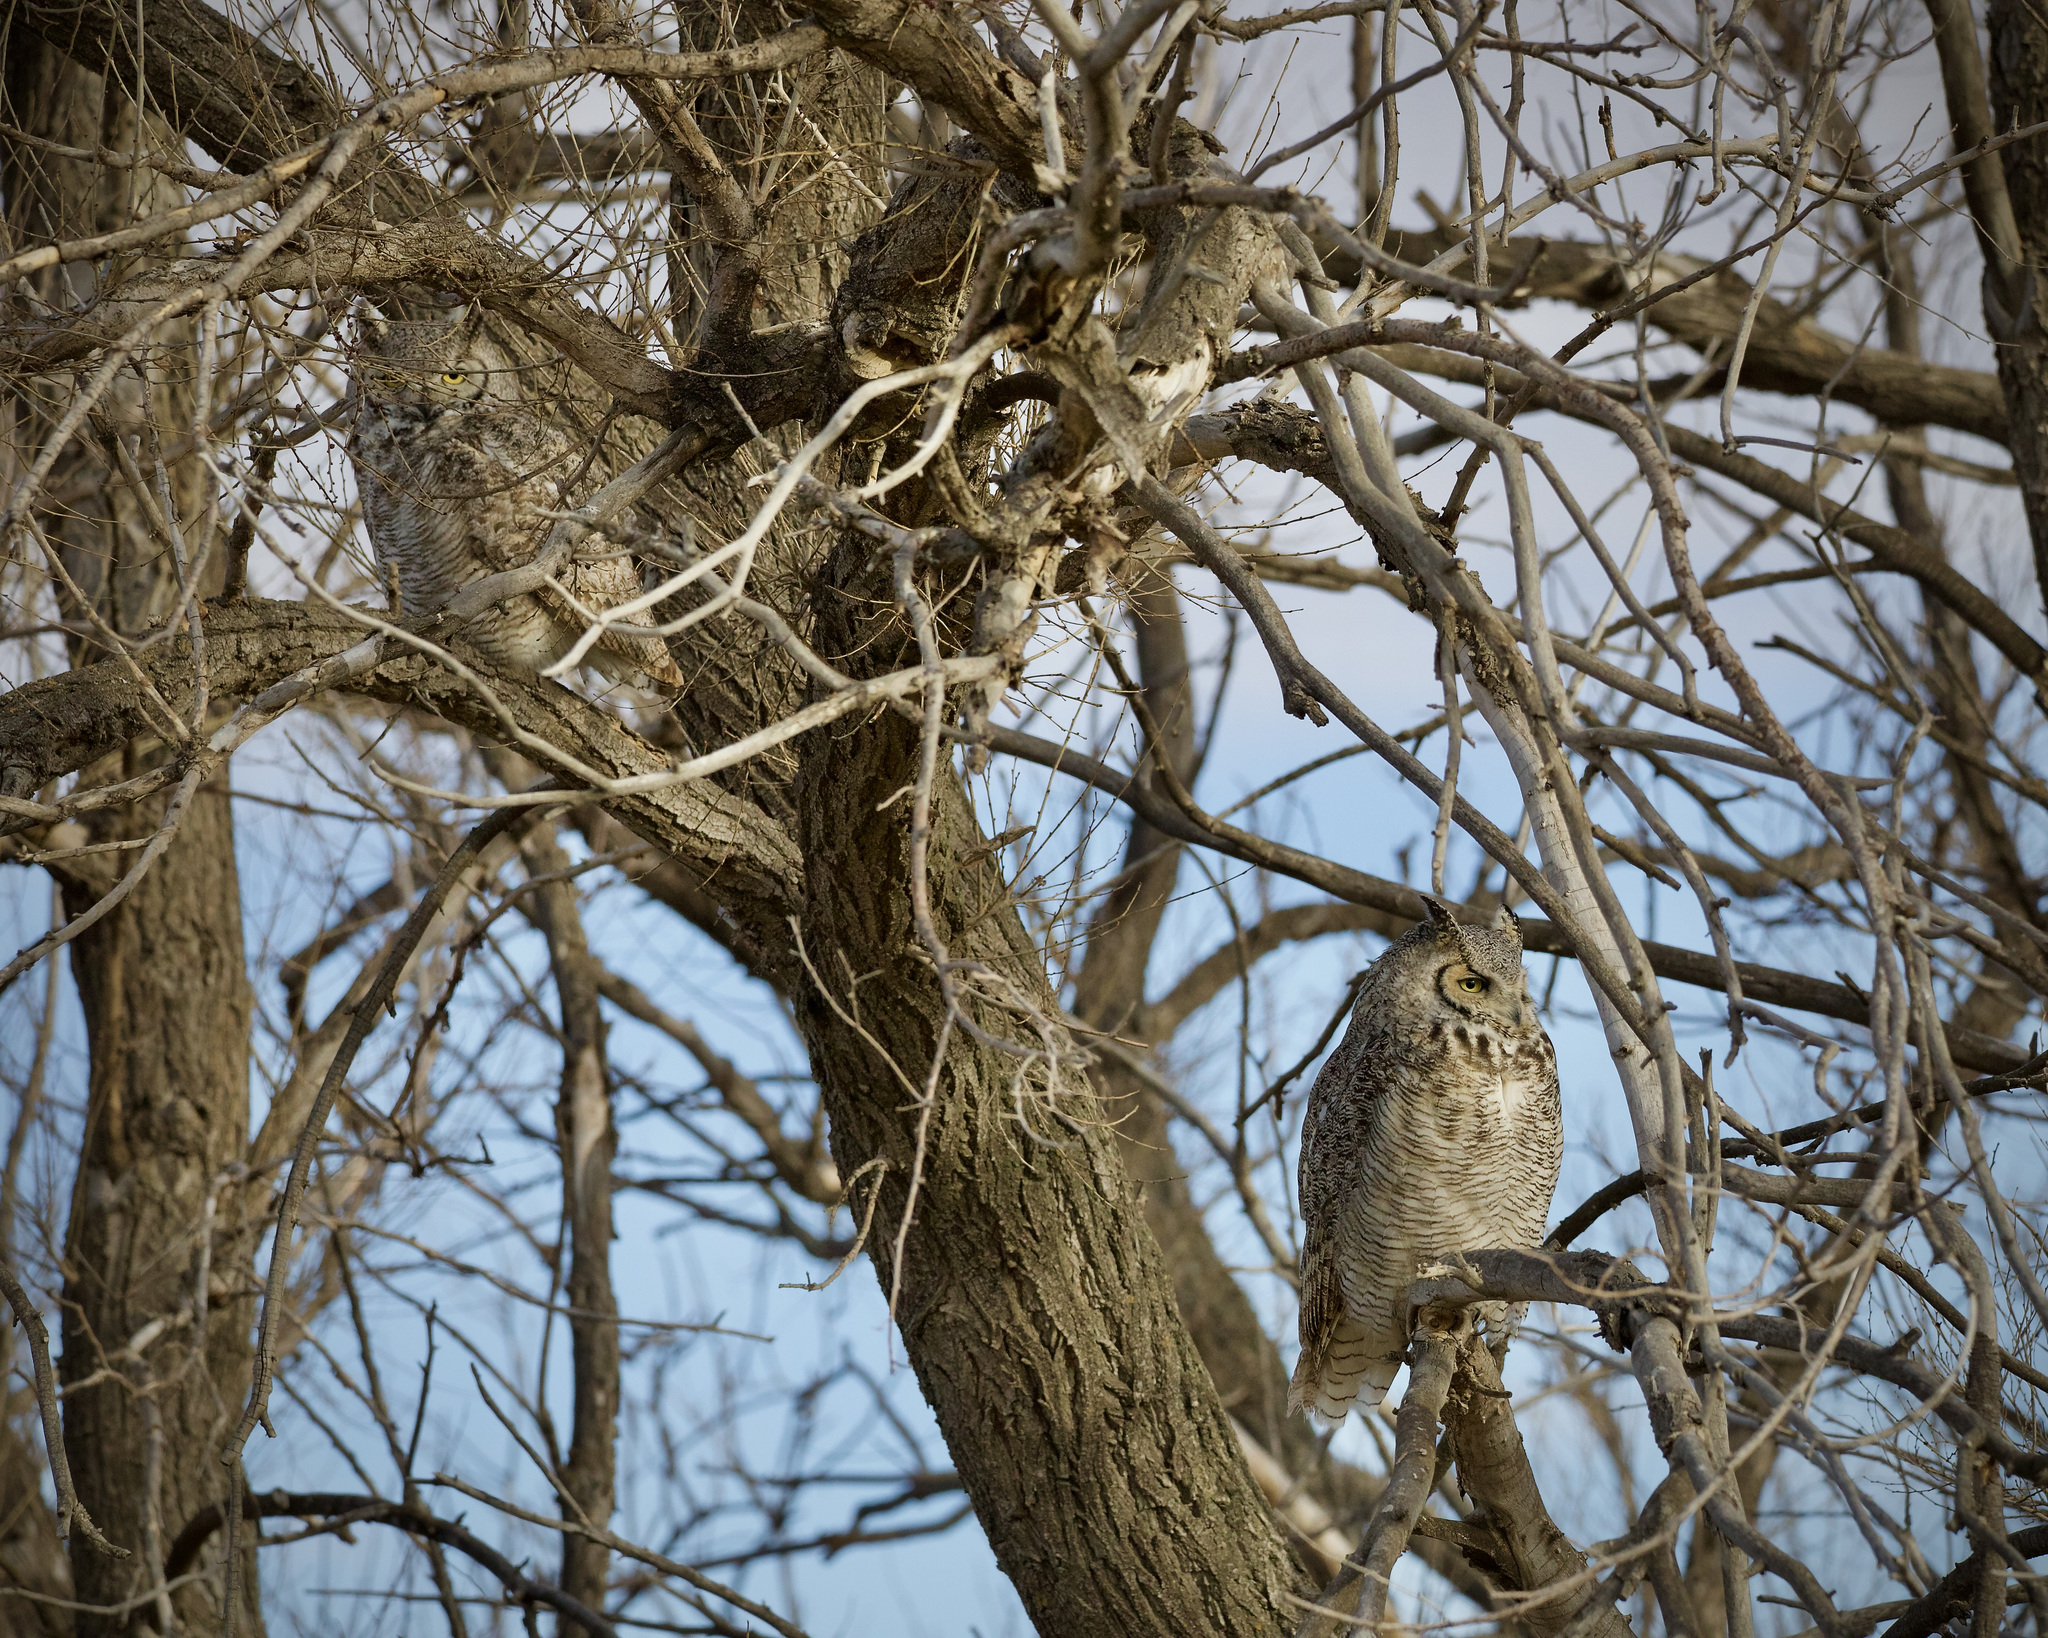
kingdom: Animalia
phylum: Chordata
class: Aves
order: Strigiformes
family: Strigidae
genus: Bubo
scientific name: Bubo virginianus
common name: Great horned owl
